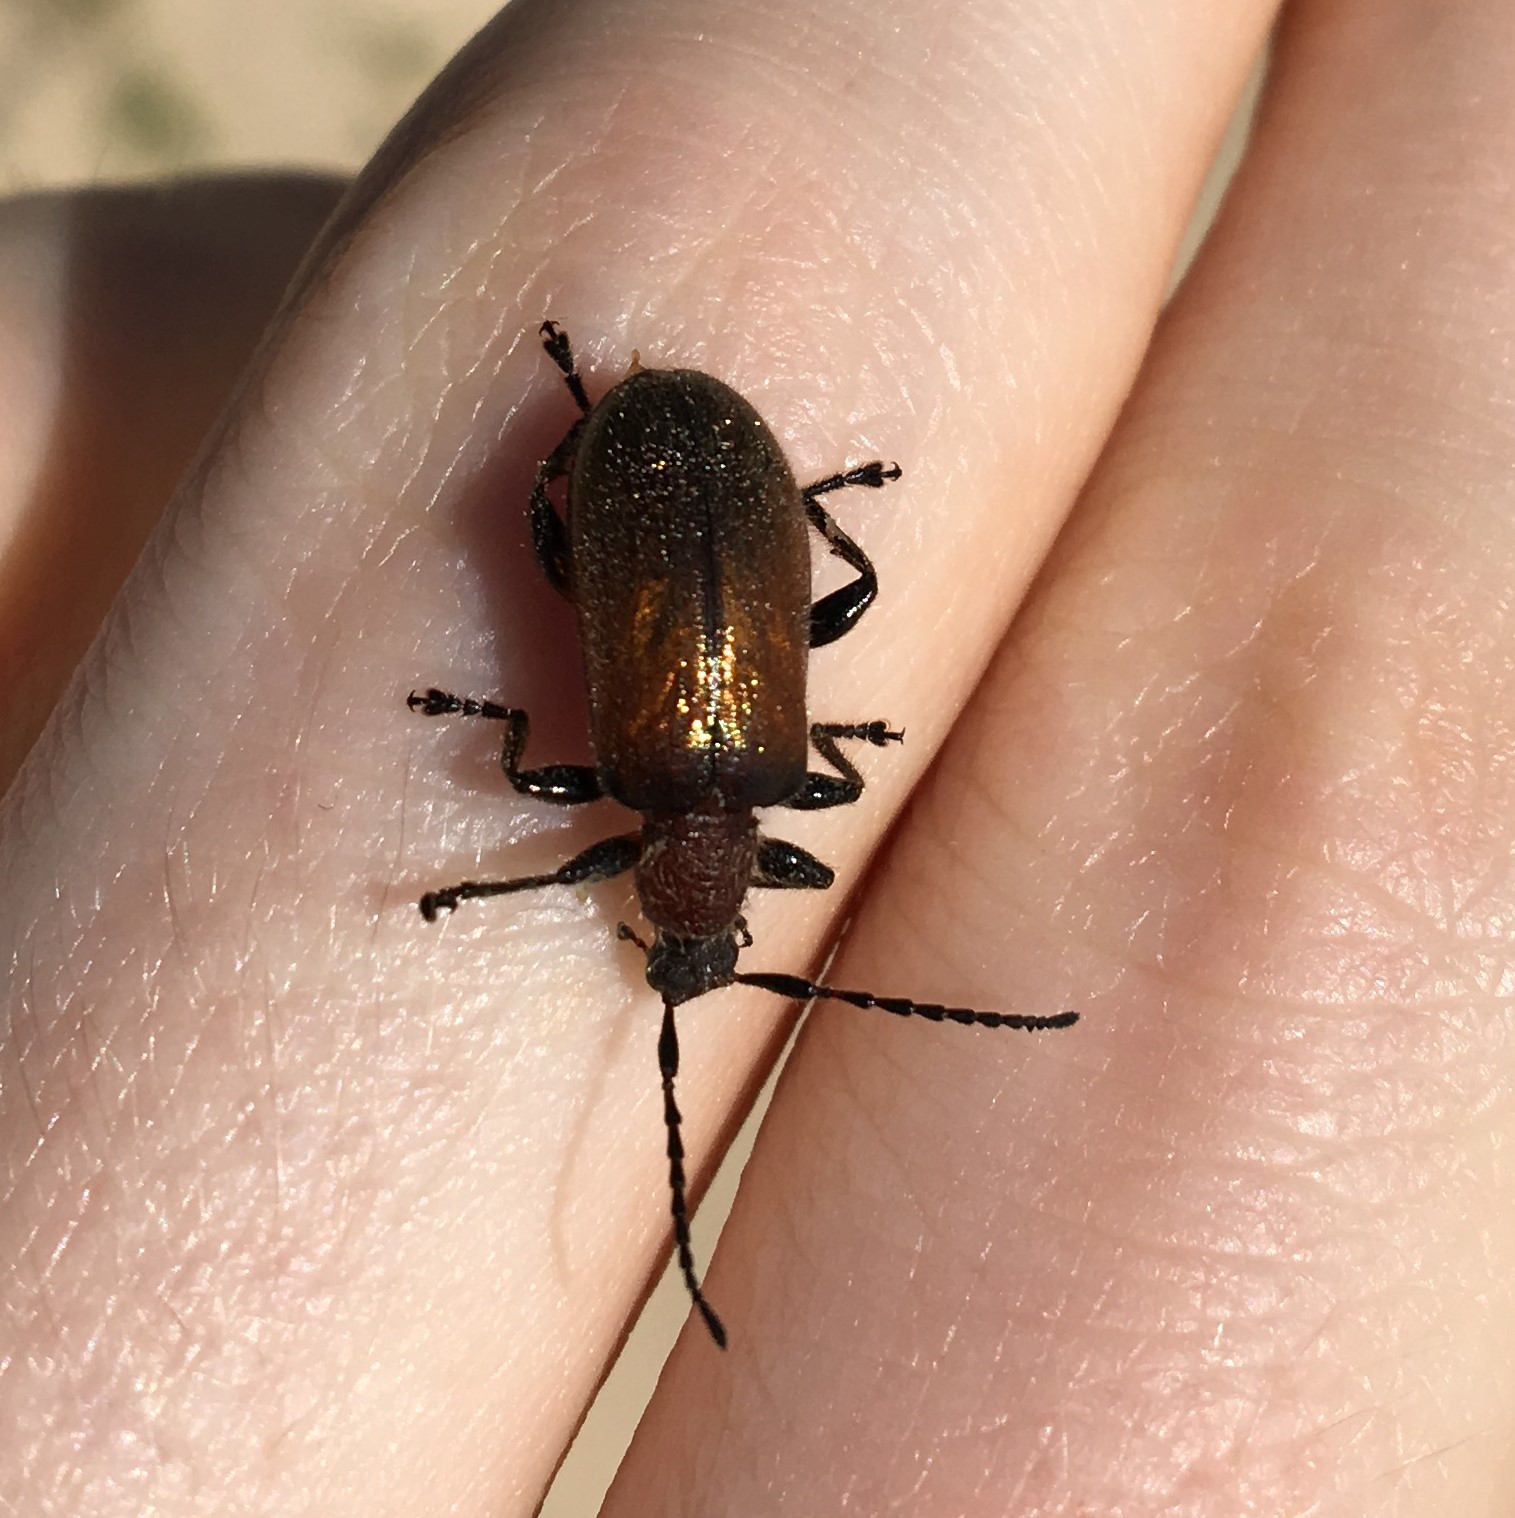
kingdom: Animalia
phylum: Arthropoda
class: Insecta
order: Coleoptera
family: Tenebrionidae
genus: Ecnolagria
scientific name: Ecnolagria
